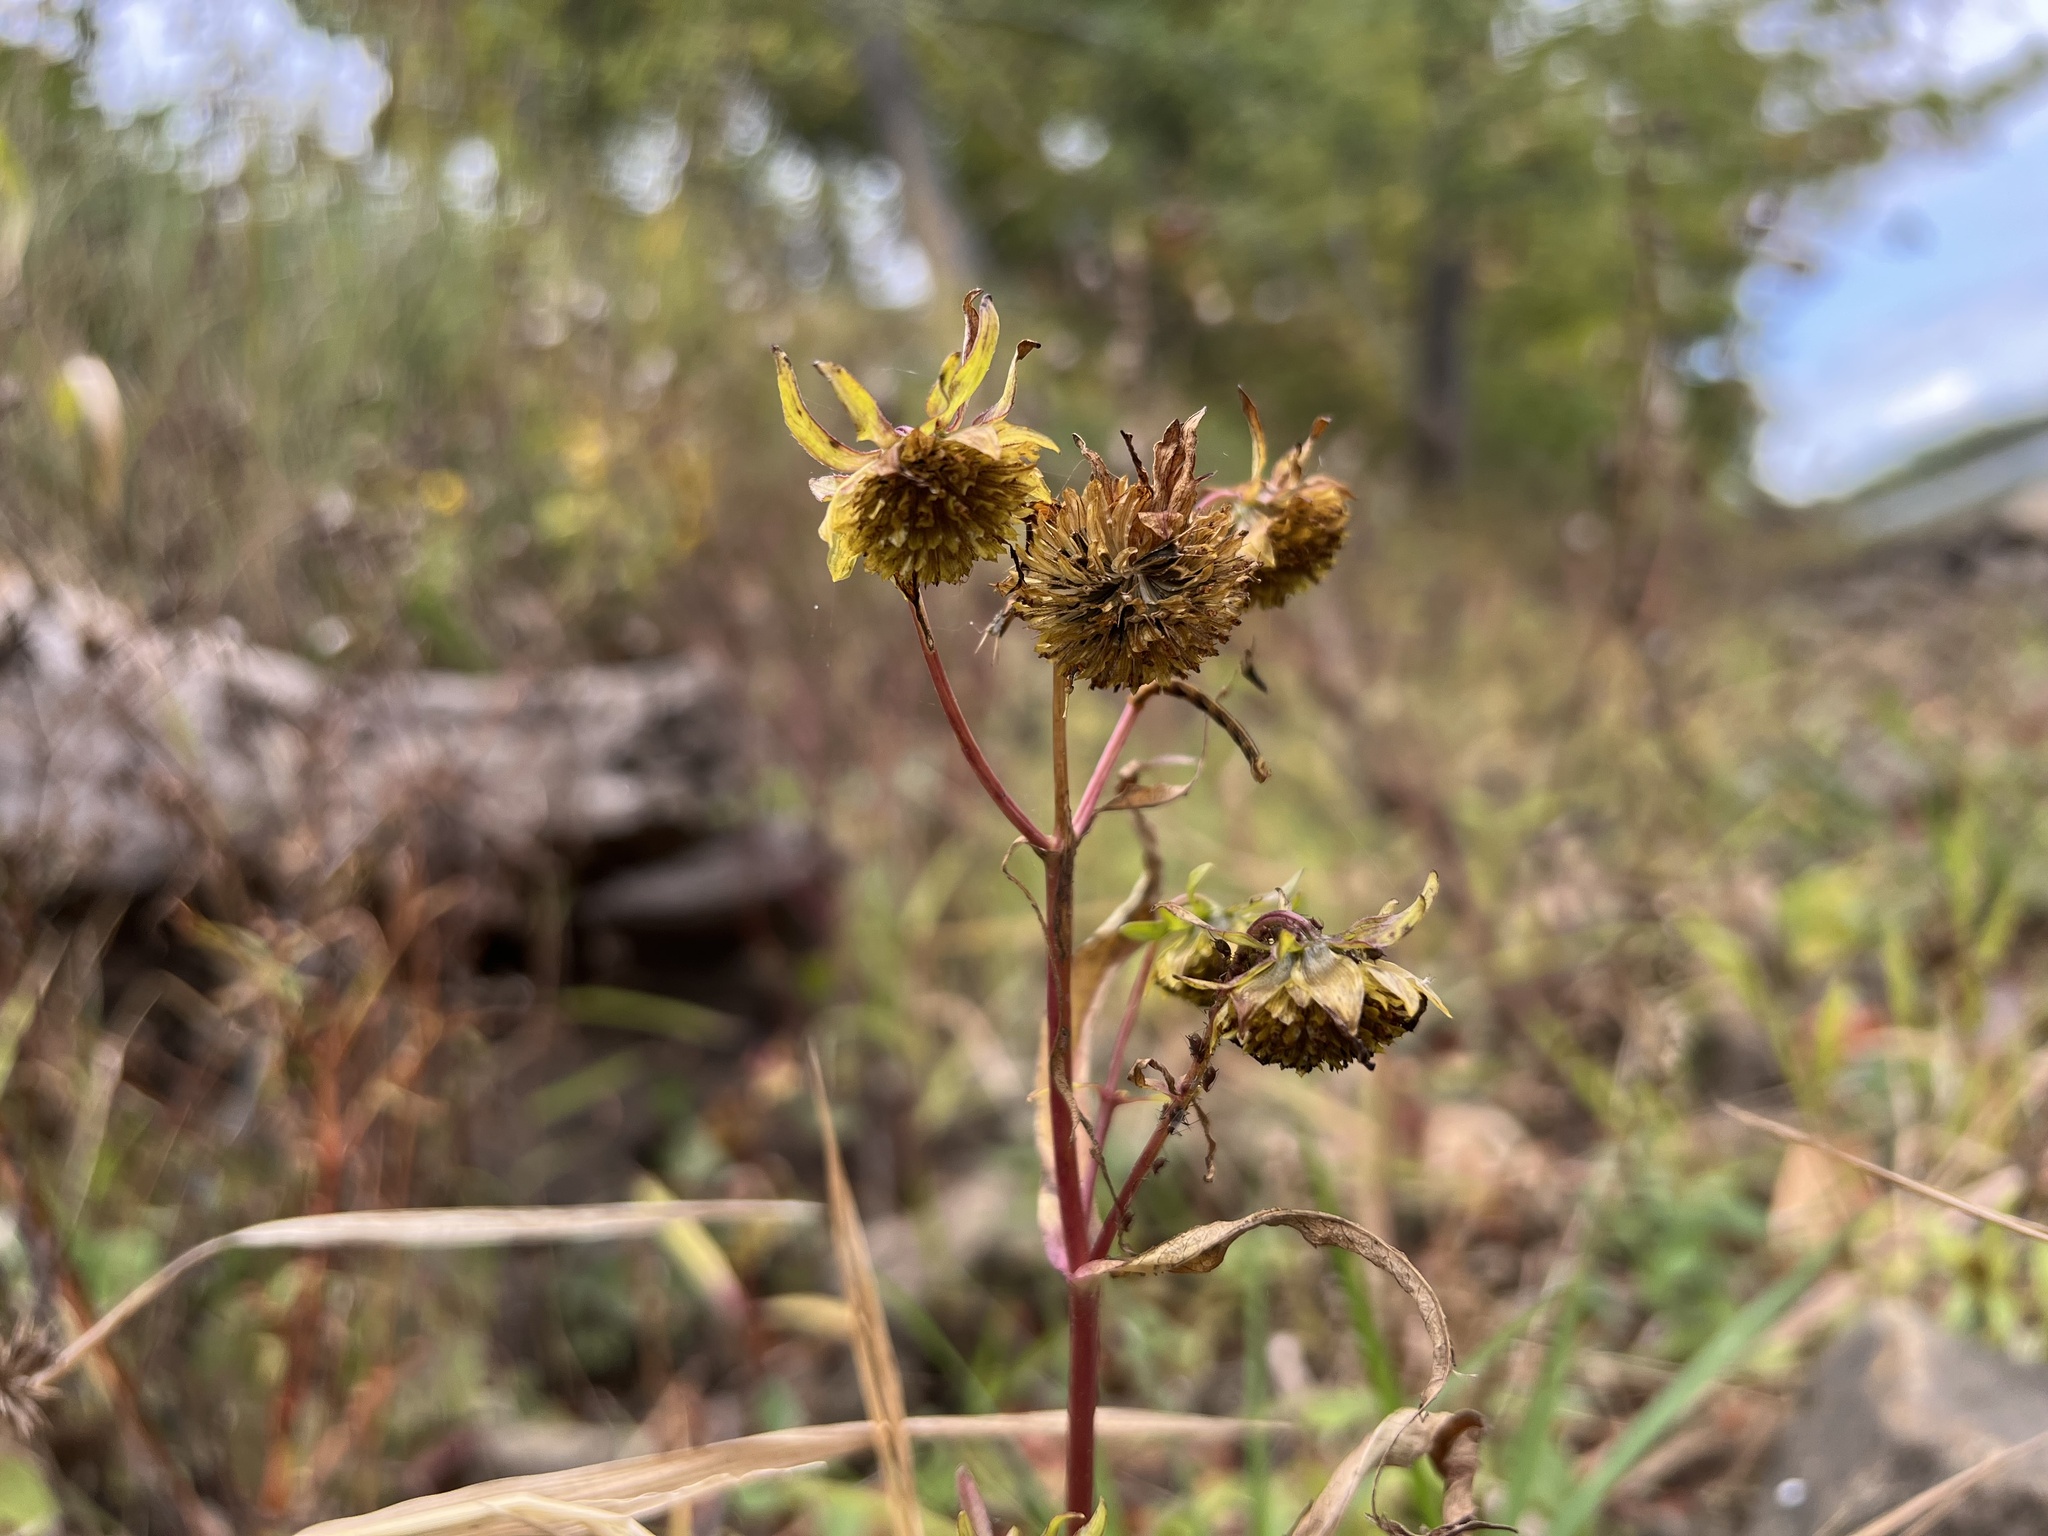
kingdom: Plantae
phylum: Tracheophyta
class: Magnoliopsida
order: Asterales
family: Asteraceae
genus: Bidens
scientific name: Bidens cernua
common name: Nodding bur-marigold
